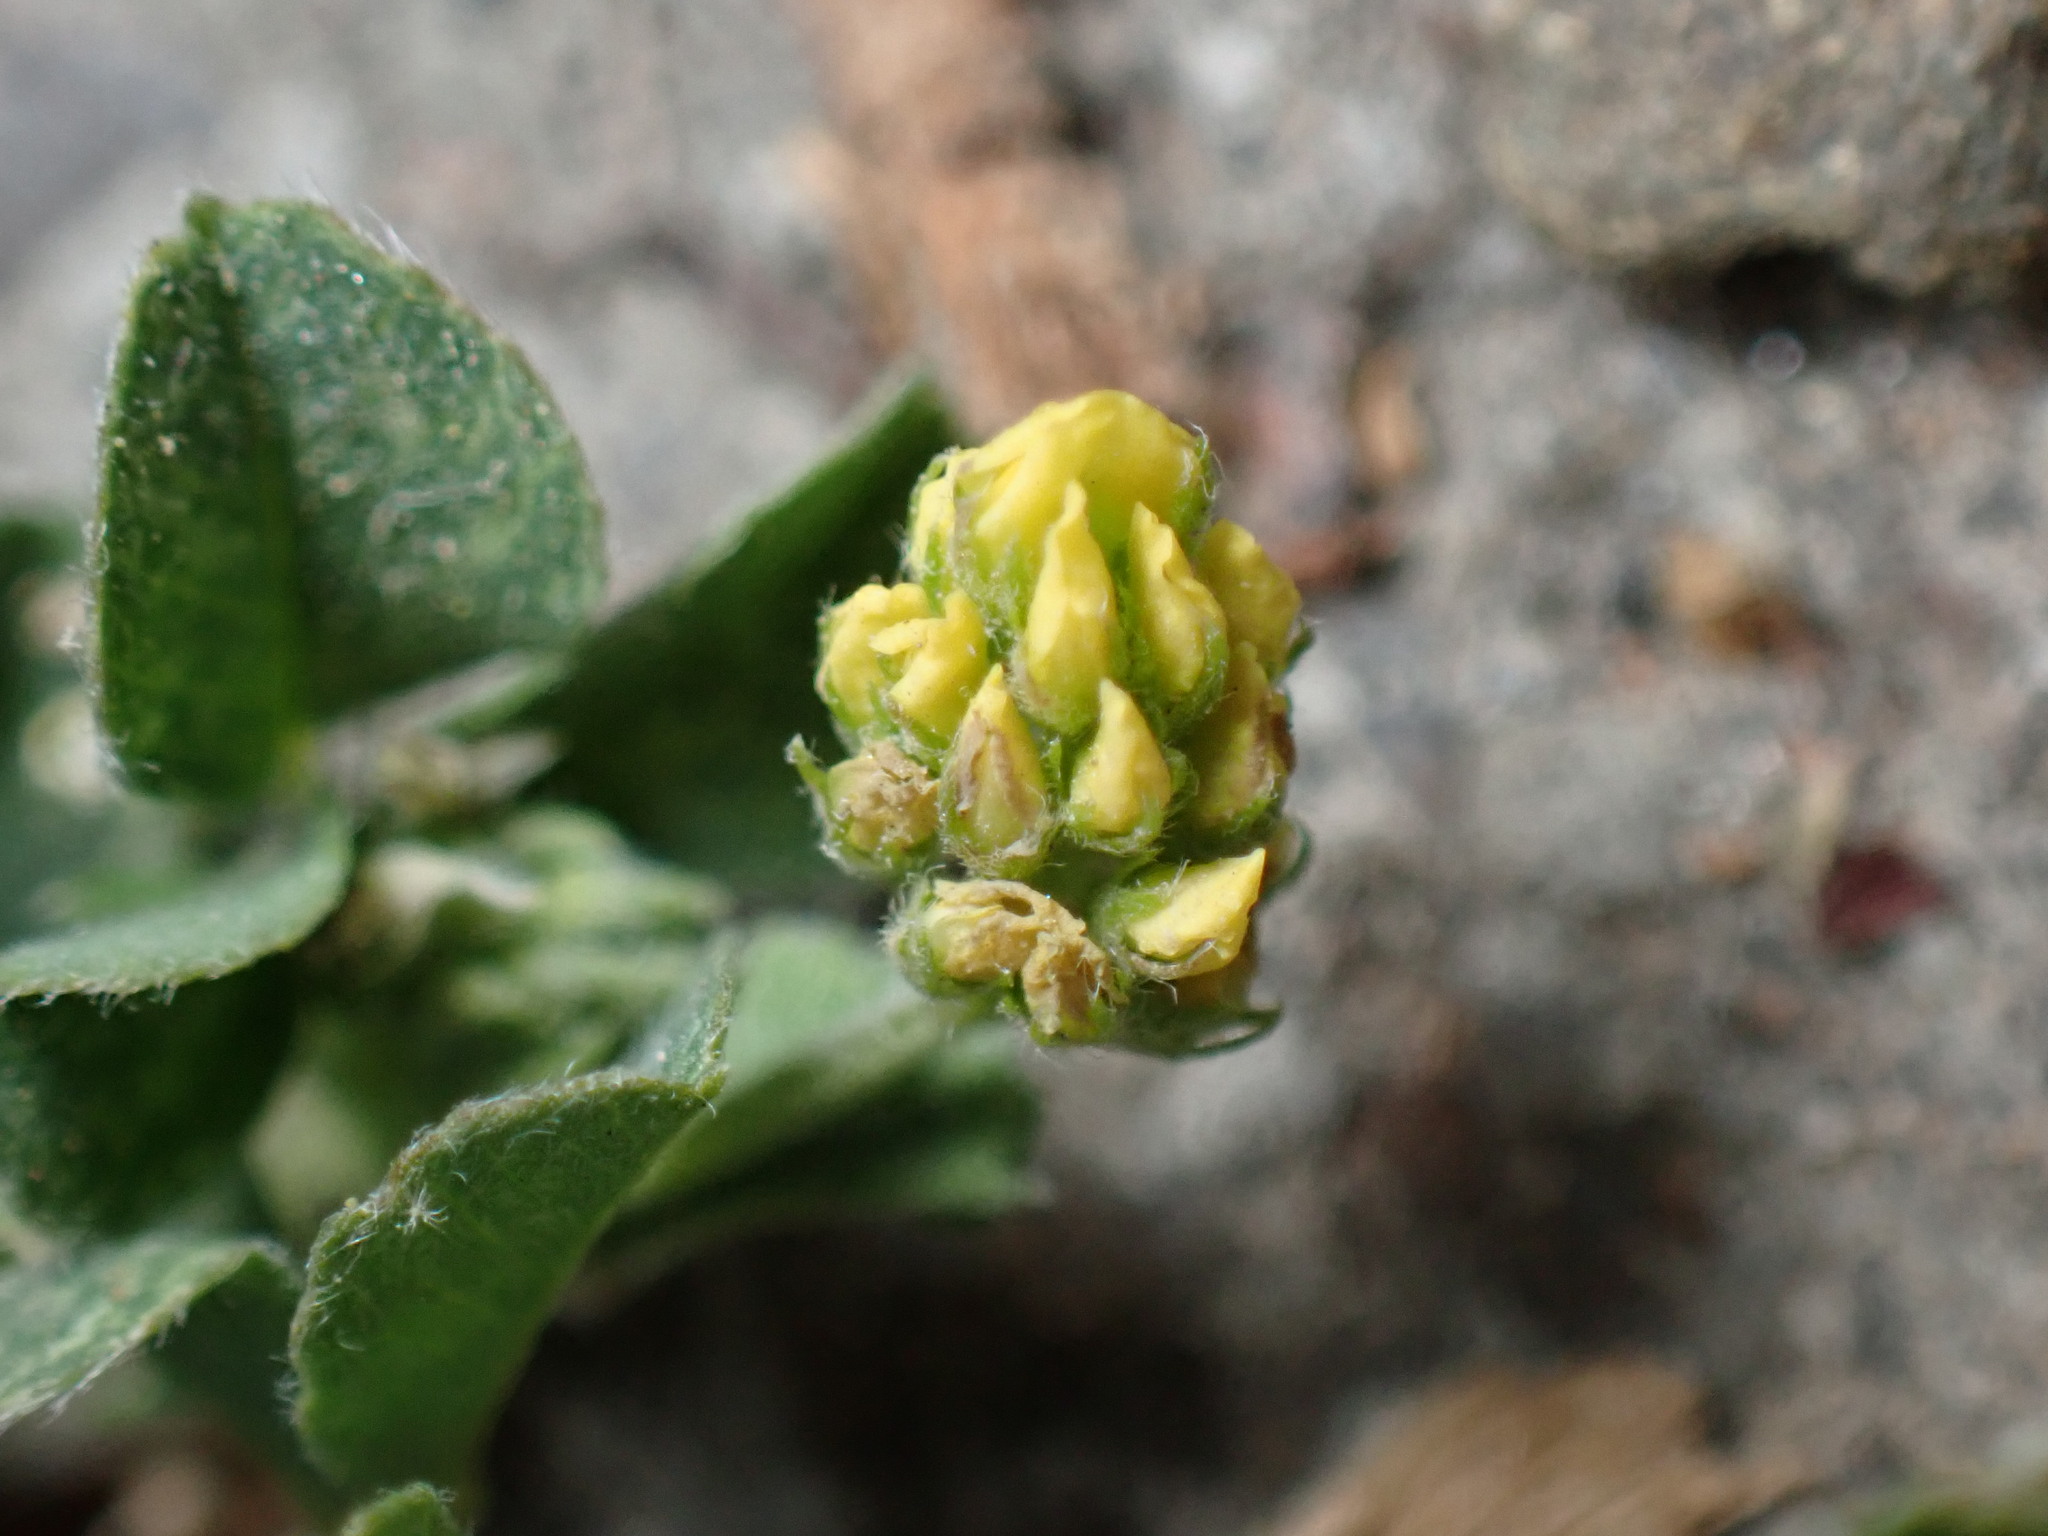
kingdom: Plantae
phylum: Tracheophyta
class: Magnoliopsida
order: Fabales
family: Fabaceae
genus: Medicago
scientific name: Medicago lupulina
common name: Black medick
